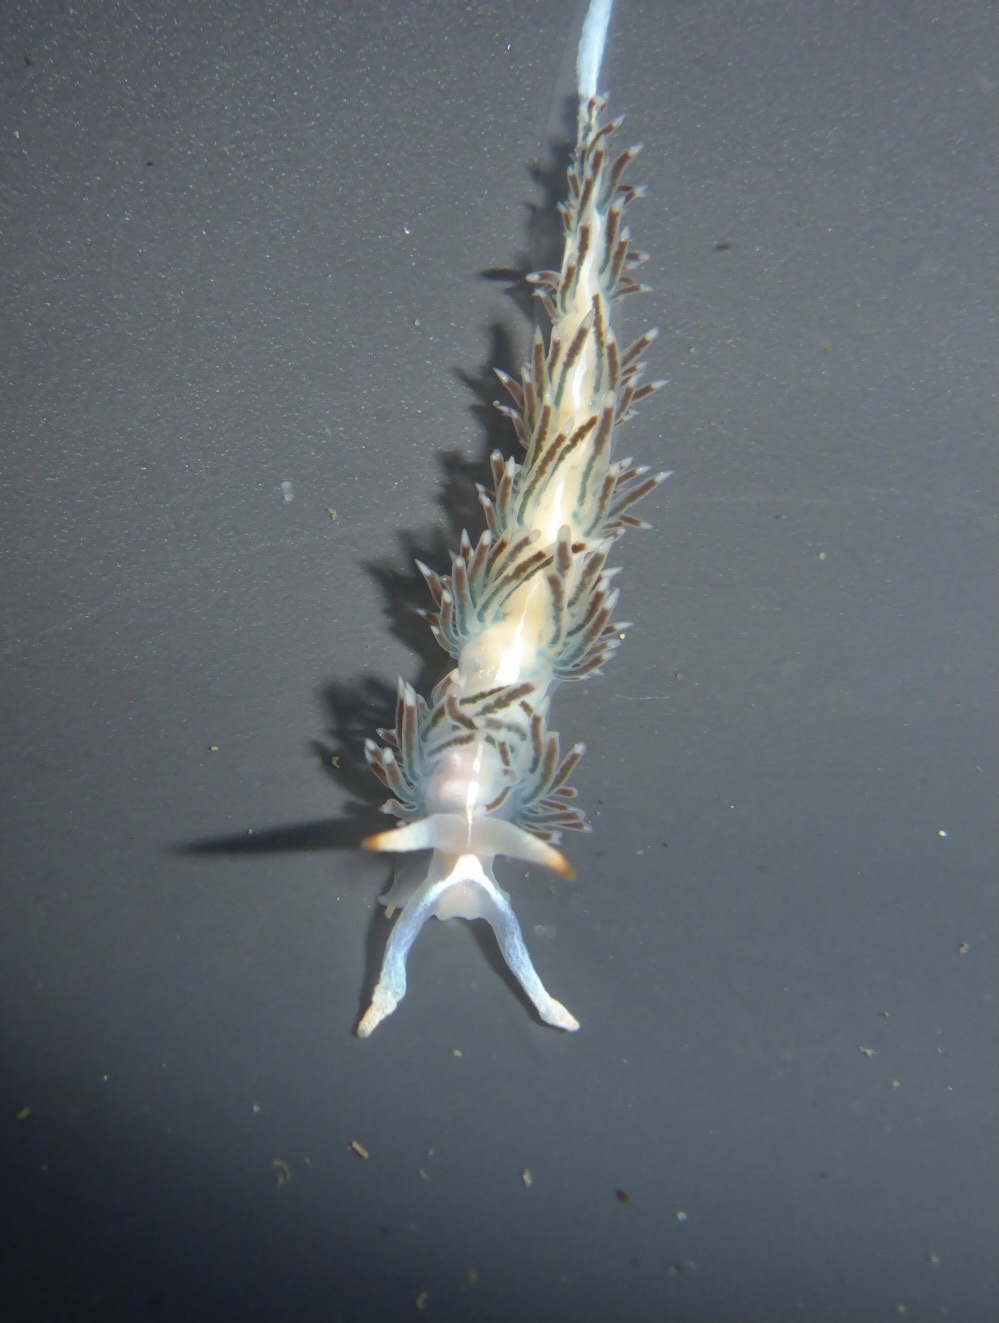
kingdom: Animalia
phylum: Mollusca
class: Gastropoda
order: Nudibranchia
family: Coryphellidae
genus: Coryphella
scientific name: Coryphella cooperi
